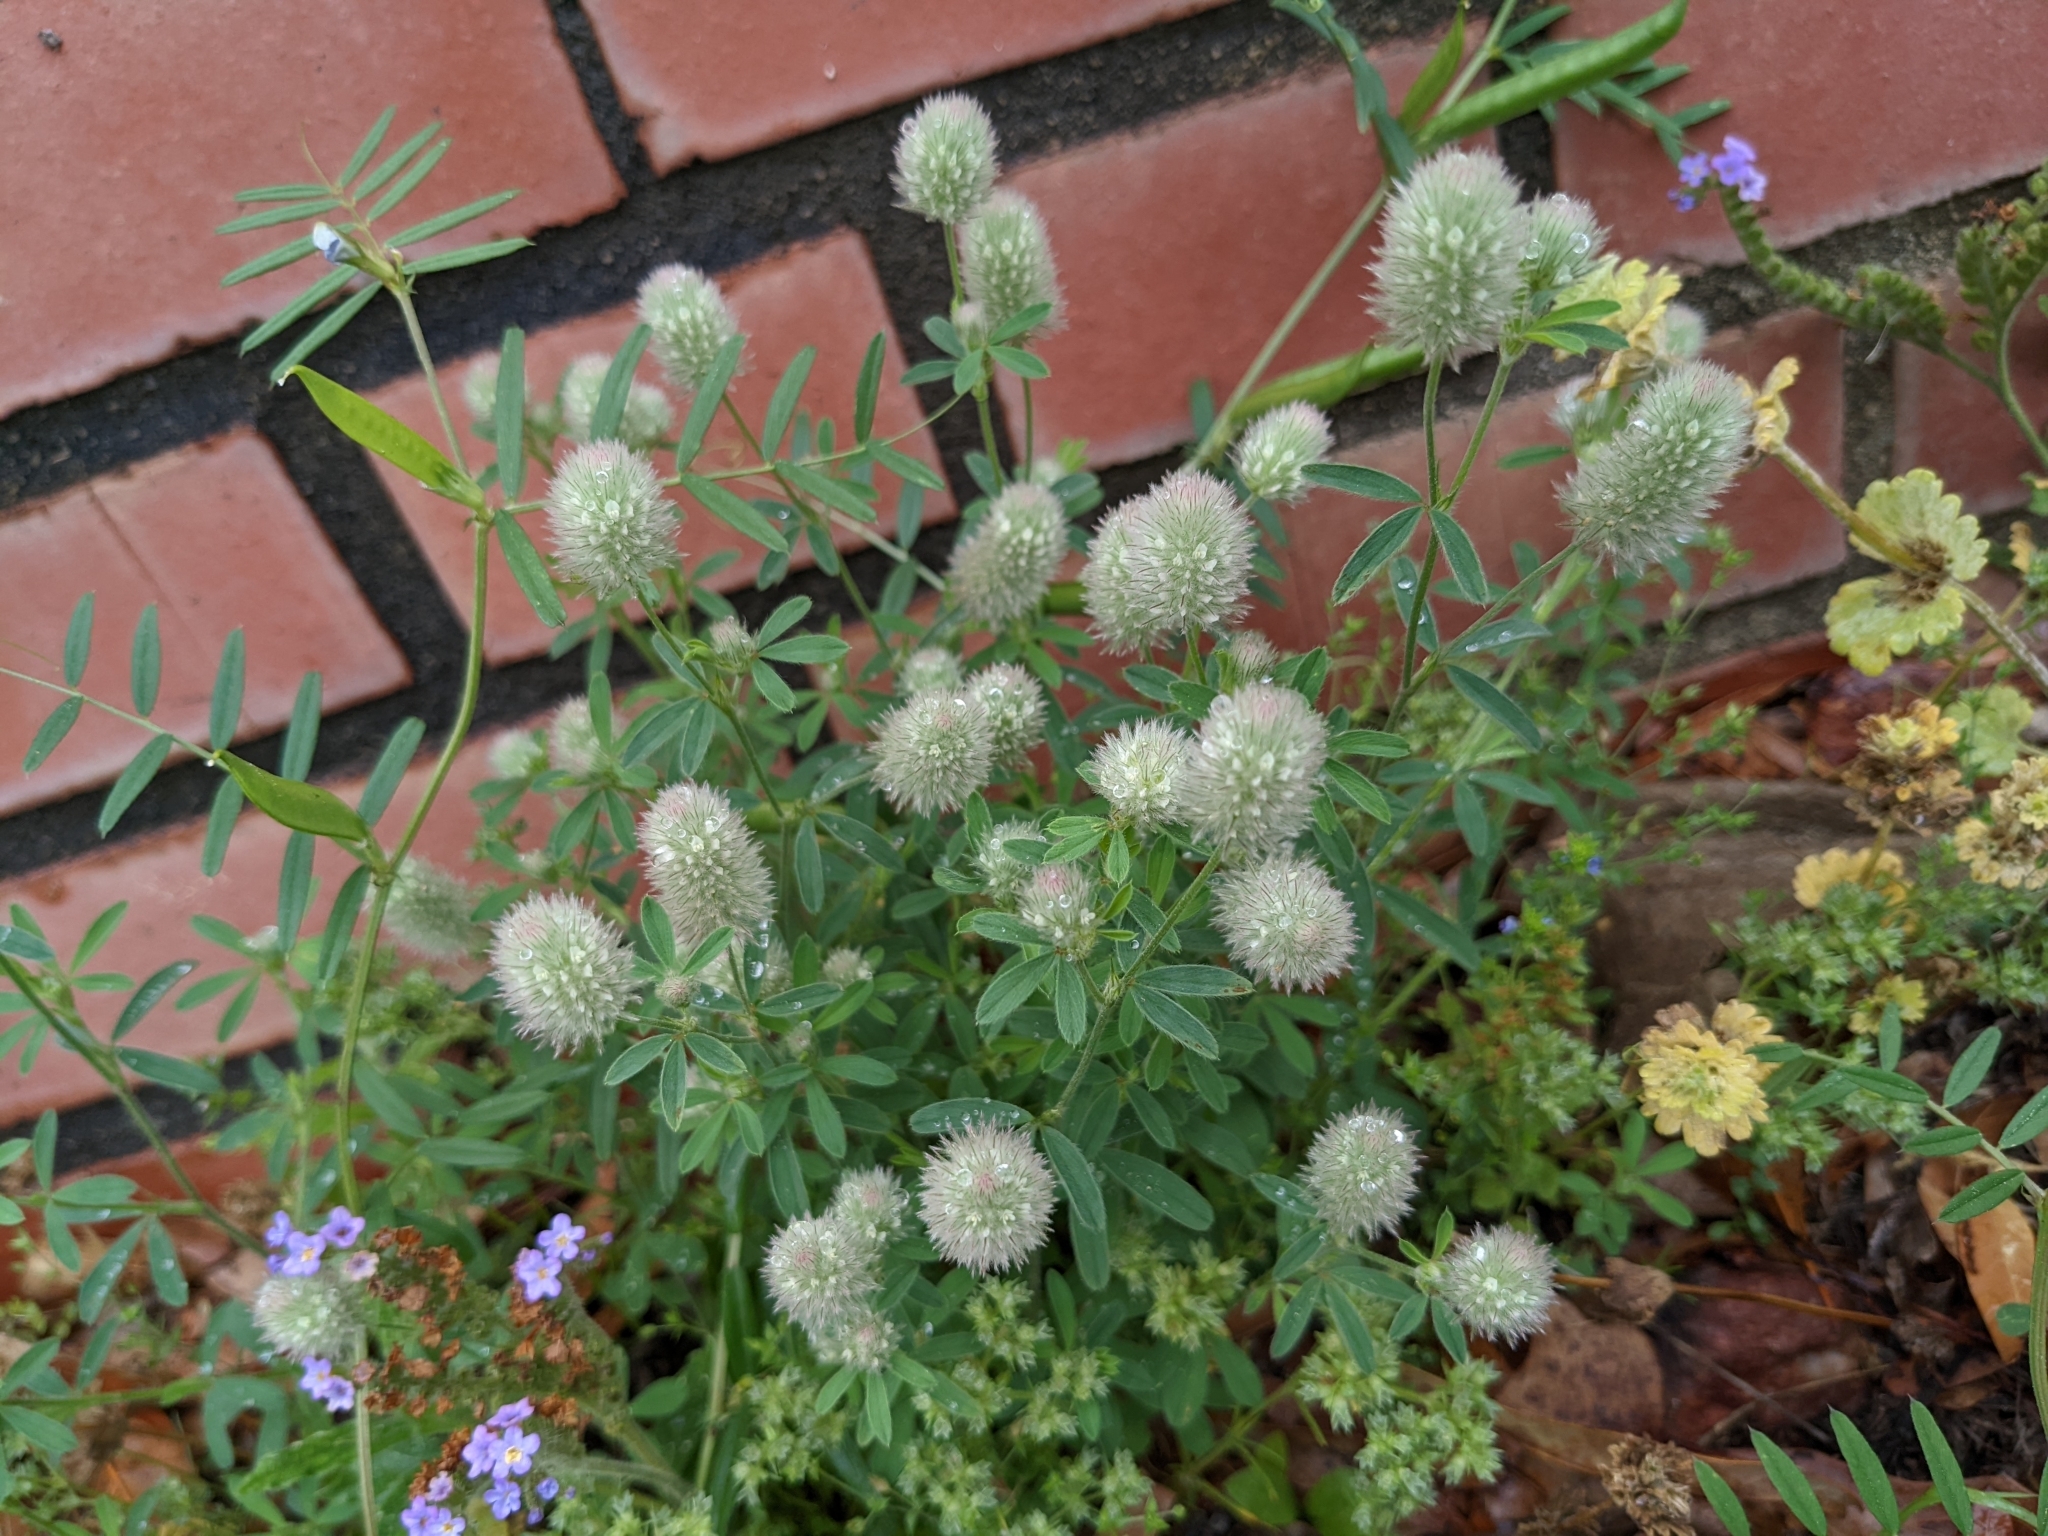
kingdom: Plantae
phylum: Tracheophyta
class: Magnoliopsida
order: Fabales
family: Fabaceae
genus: Trifolium
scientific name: Trifolium arvense
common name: Hare's-foot clover
